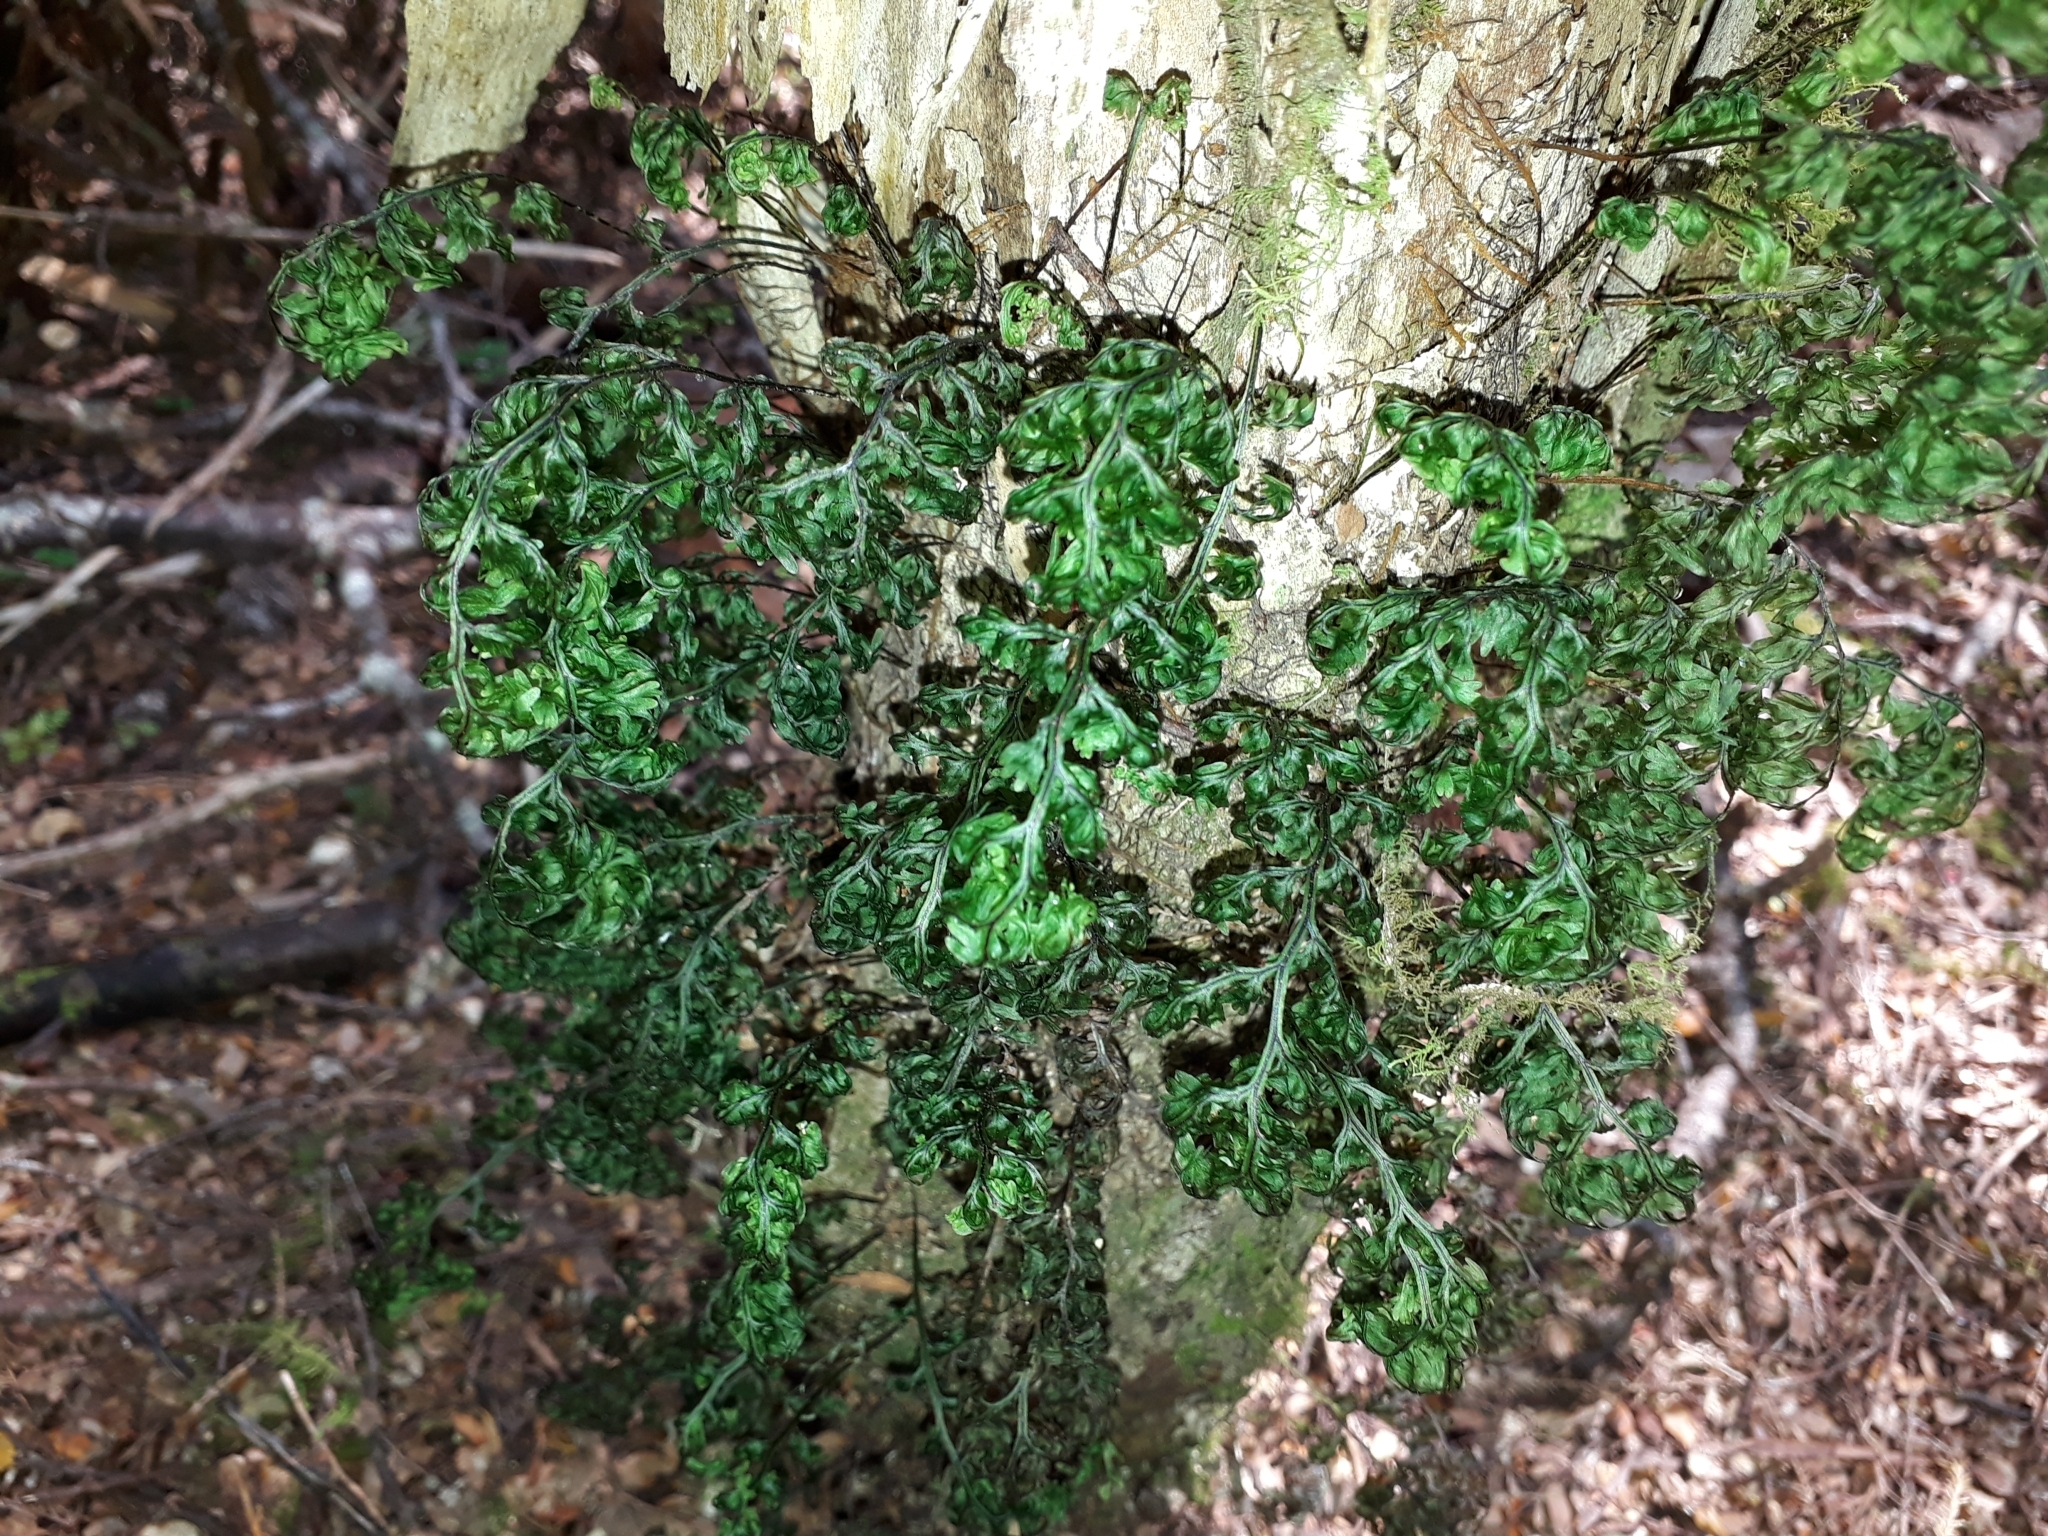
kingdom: Plantae
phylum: Tracheophyta
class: Polypodiopsida
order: Hymenophyllales
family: Hymenophyllaceae
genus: Hymenophyllum
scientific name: Hymenophyllum sanguinolentum
